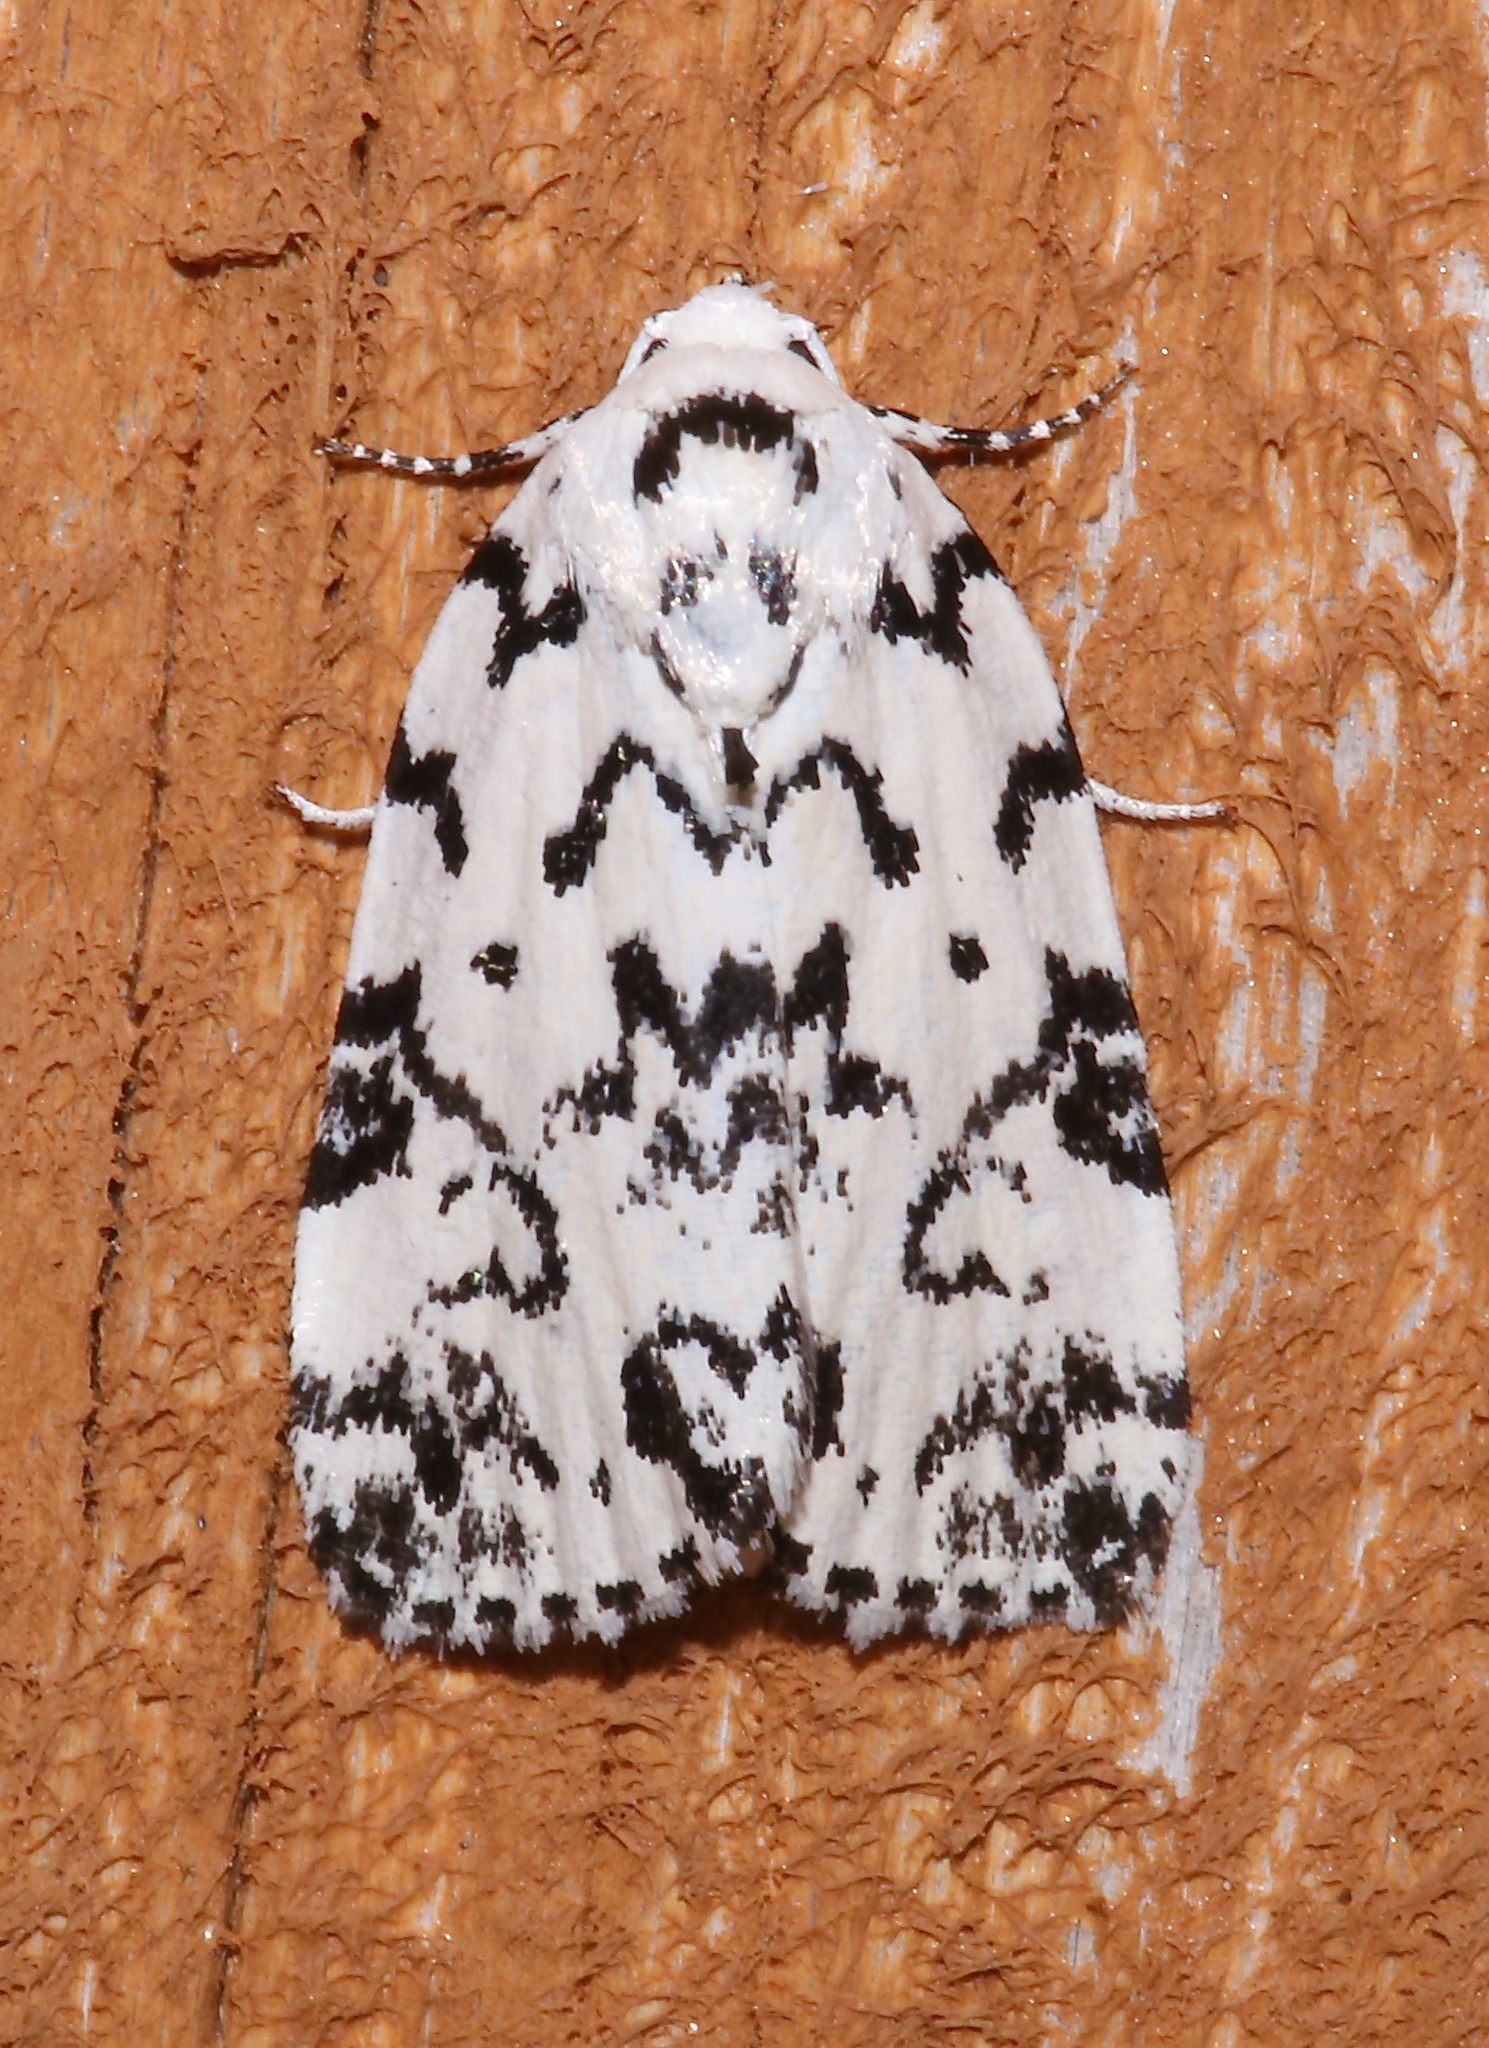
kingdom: Animalia
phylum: Arthropoda
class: Insecta
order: Lepidoptera
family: Noctuidae
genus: Polygrammate
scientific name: Polygrammate hebraeicum
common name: Hebrew moth
